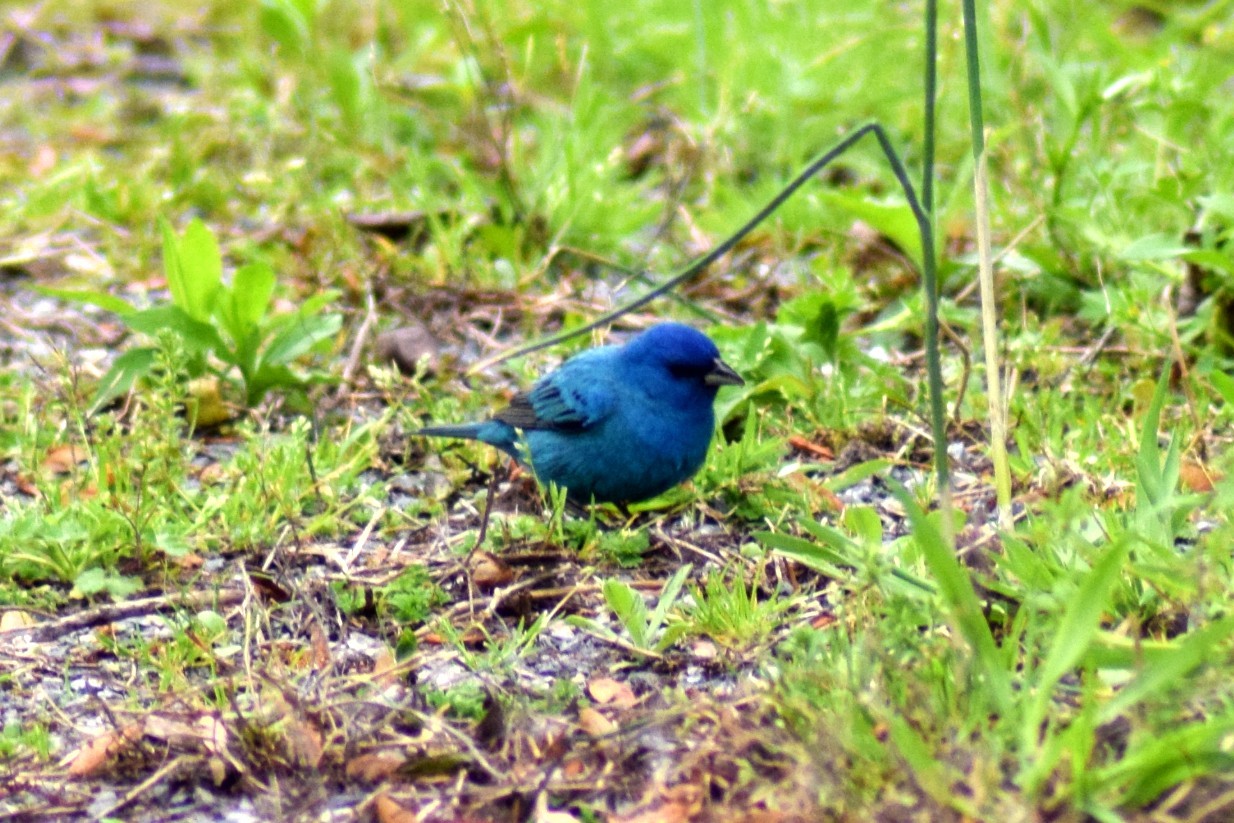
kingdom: Animalia
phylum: Chordata
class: Aves
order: Passeriformes
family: Cardinalidae
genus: Passerina
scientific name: Passerina cyanea
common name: Indigo bunting
